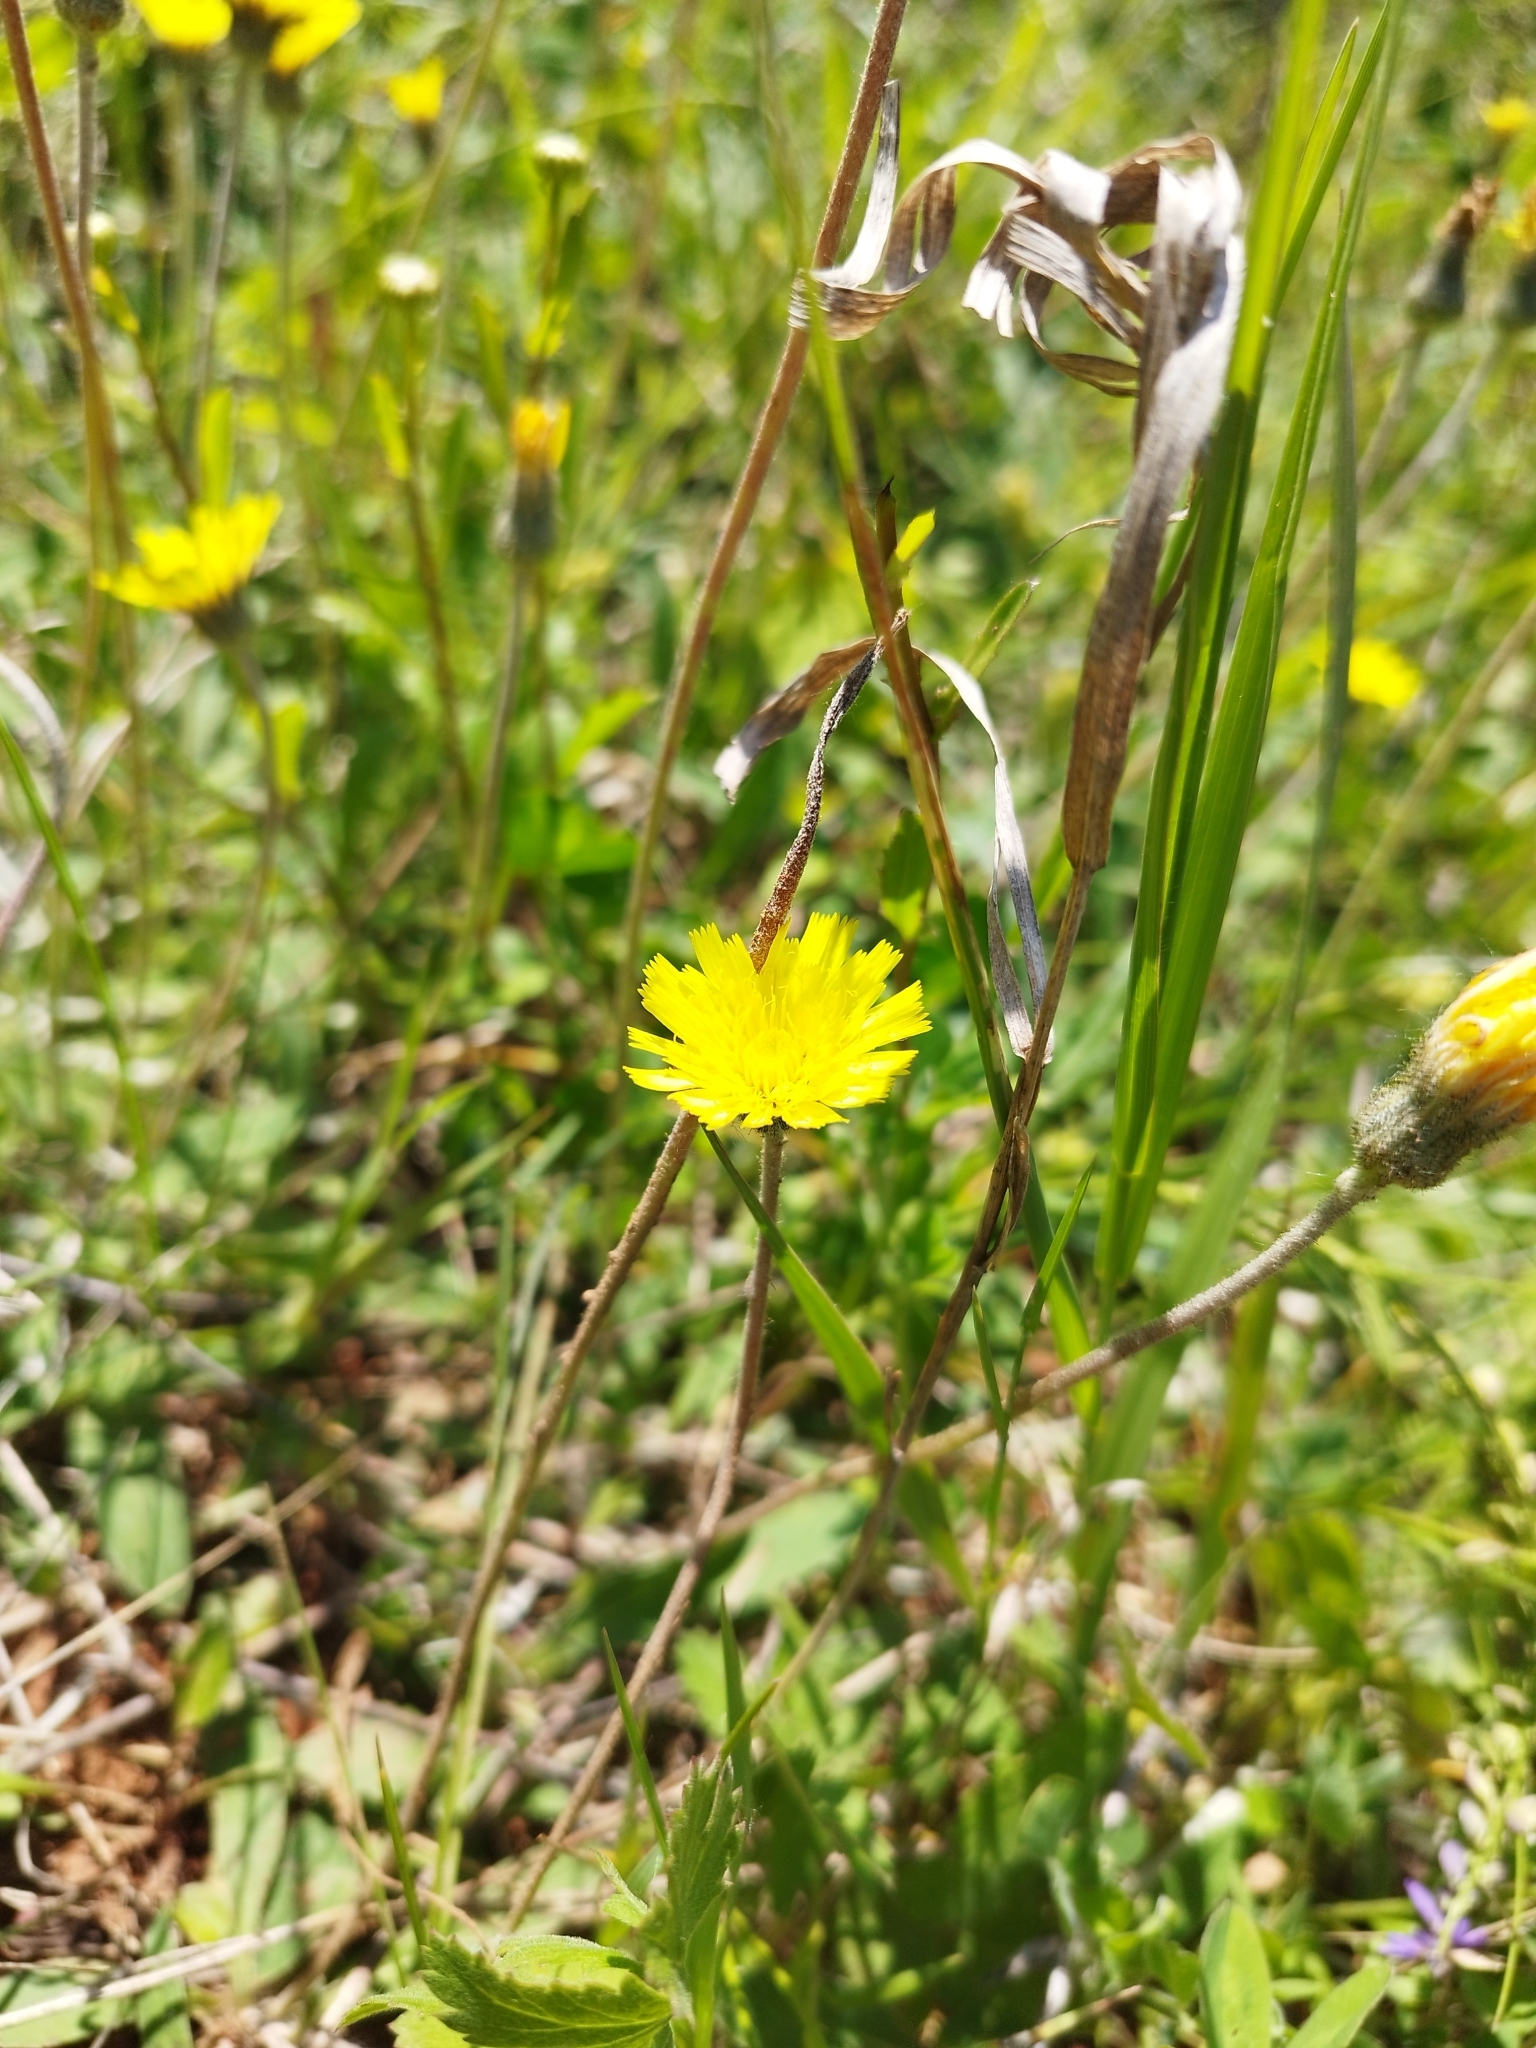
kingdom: Plantae
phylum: Tracheophyta
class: Magnoliopsida
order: Asterales
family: Asteraceae
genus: Pilosella
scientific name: Pilosella officinarum
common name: Mouse-ear hawkweed
